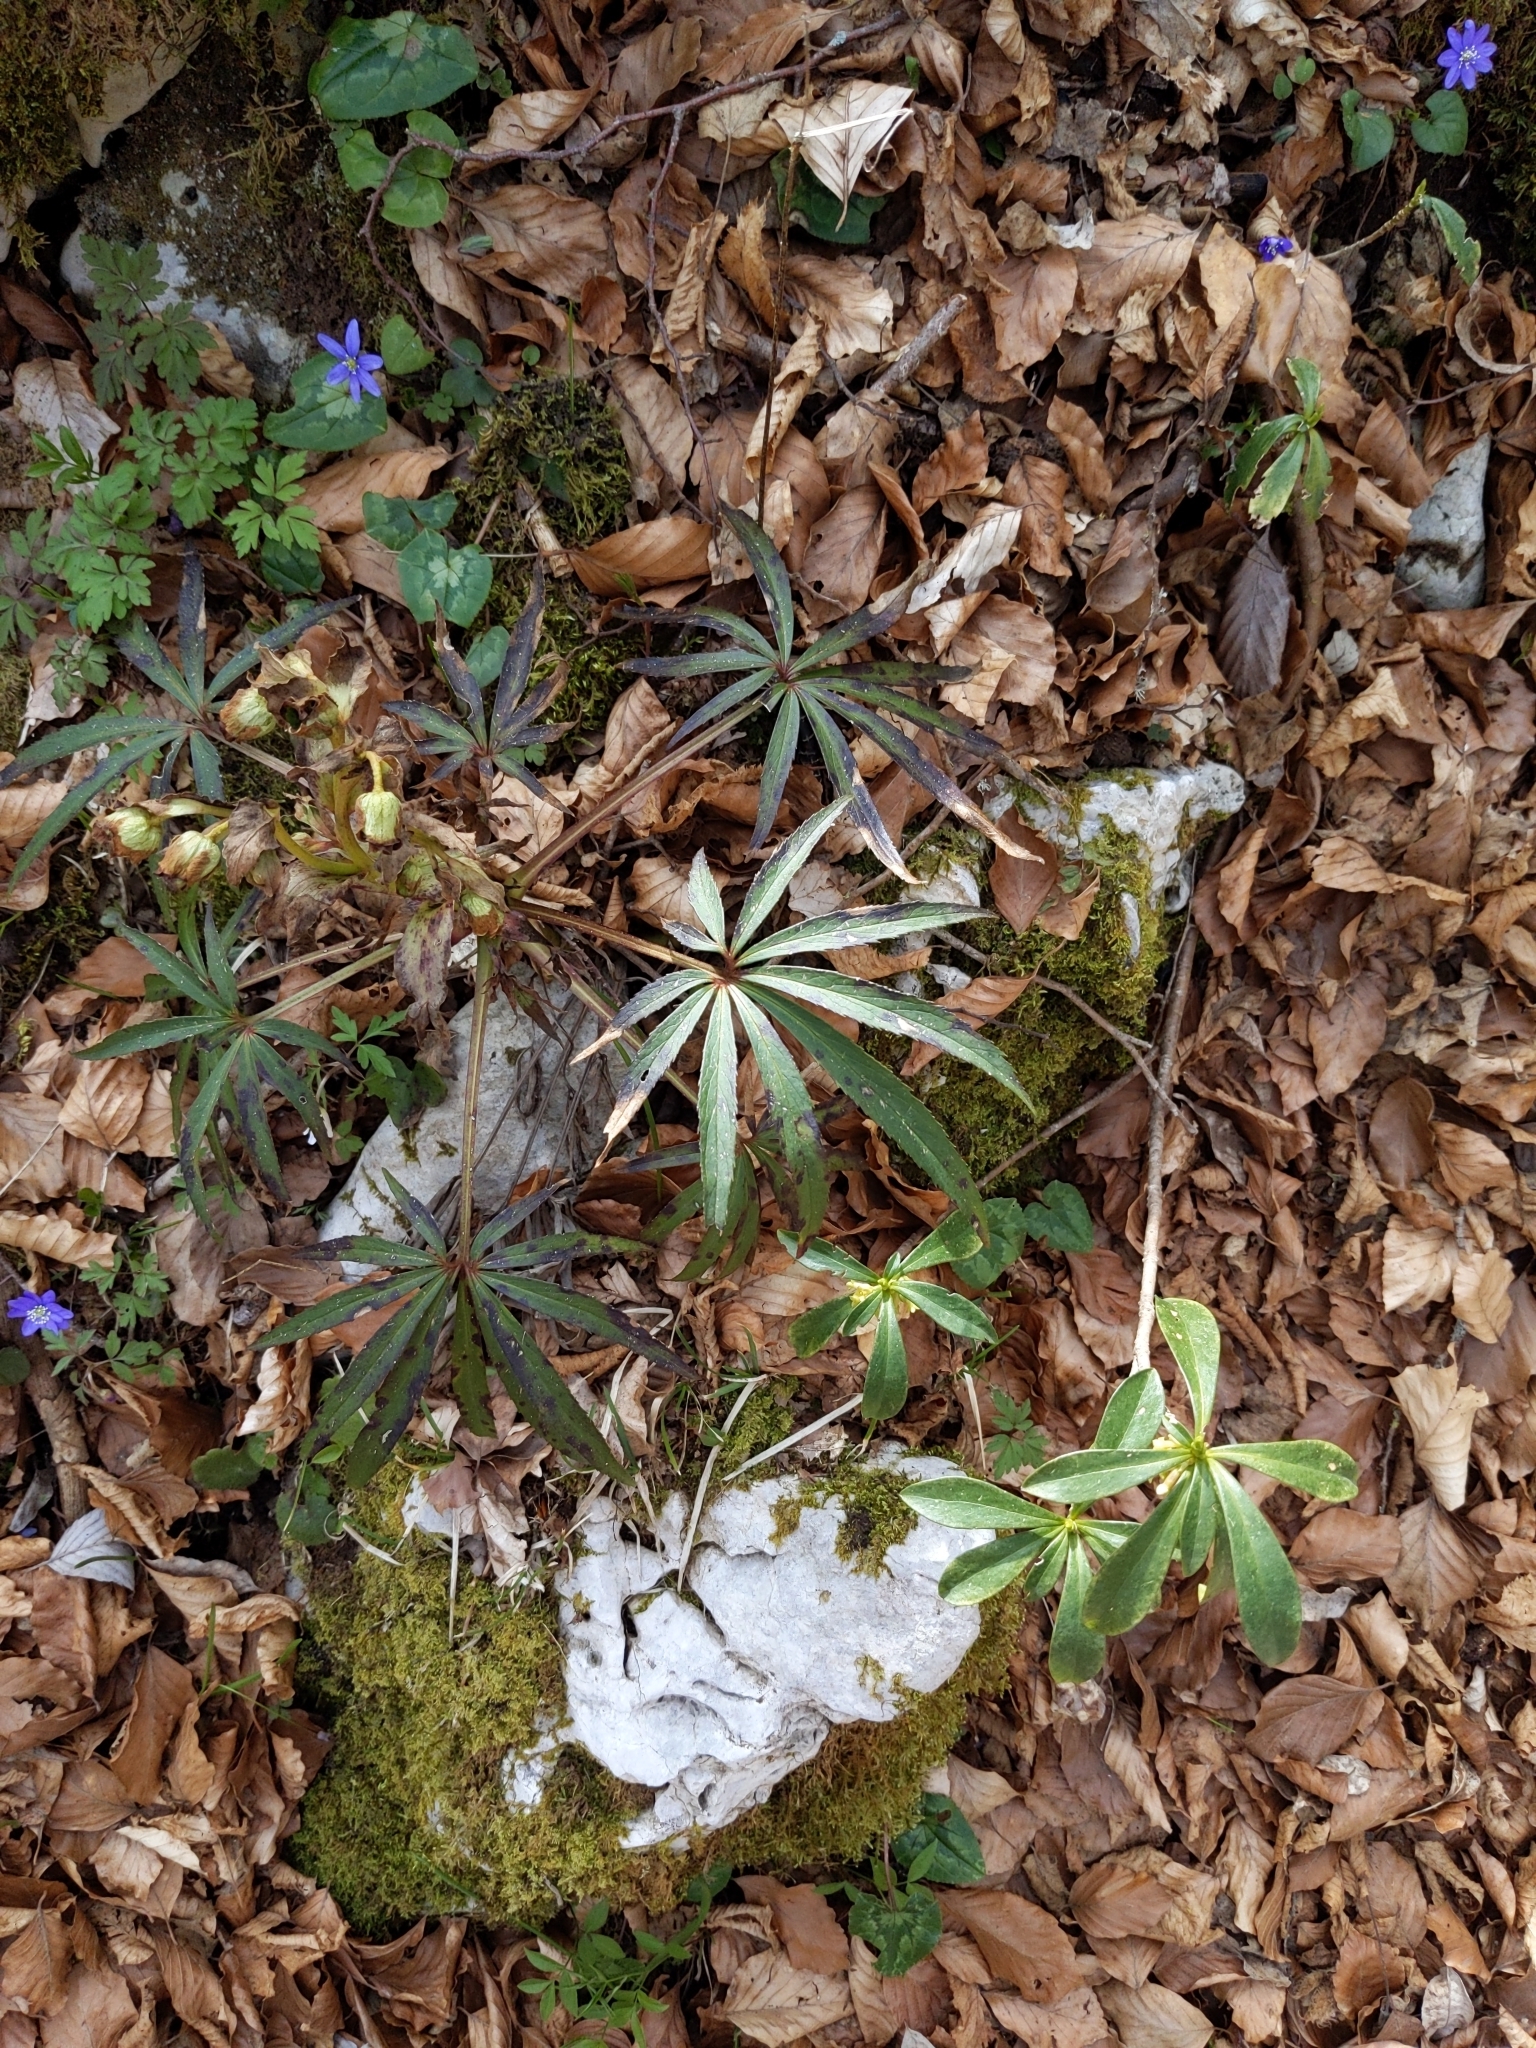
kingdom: Plantae
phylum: Tracheophyta
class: Magnoliopsida
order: Ranunculales
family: Ranunculaceae
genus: Helleborus
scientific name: Helleborus foetidus
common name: Stinking hellebore
